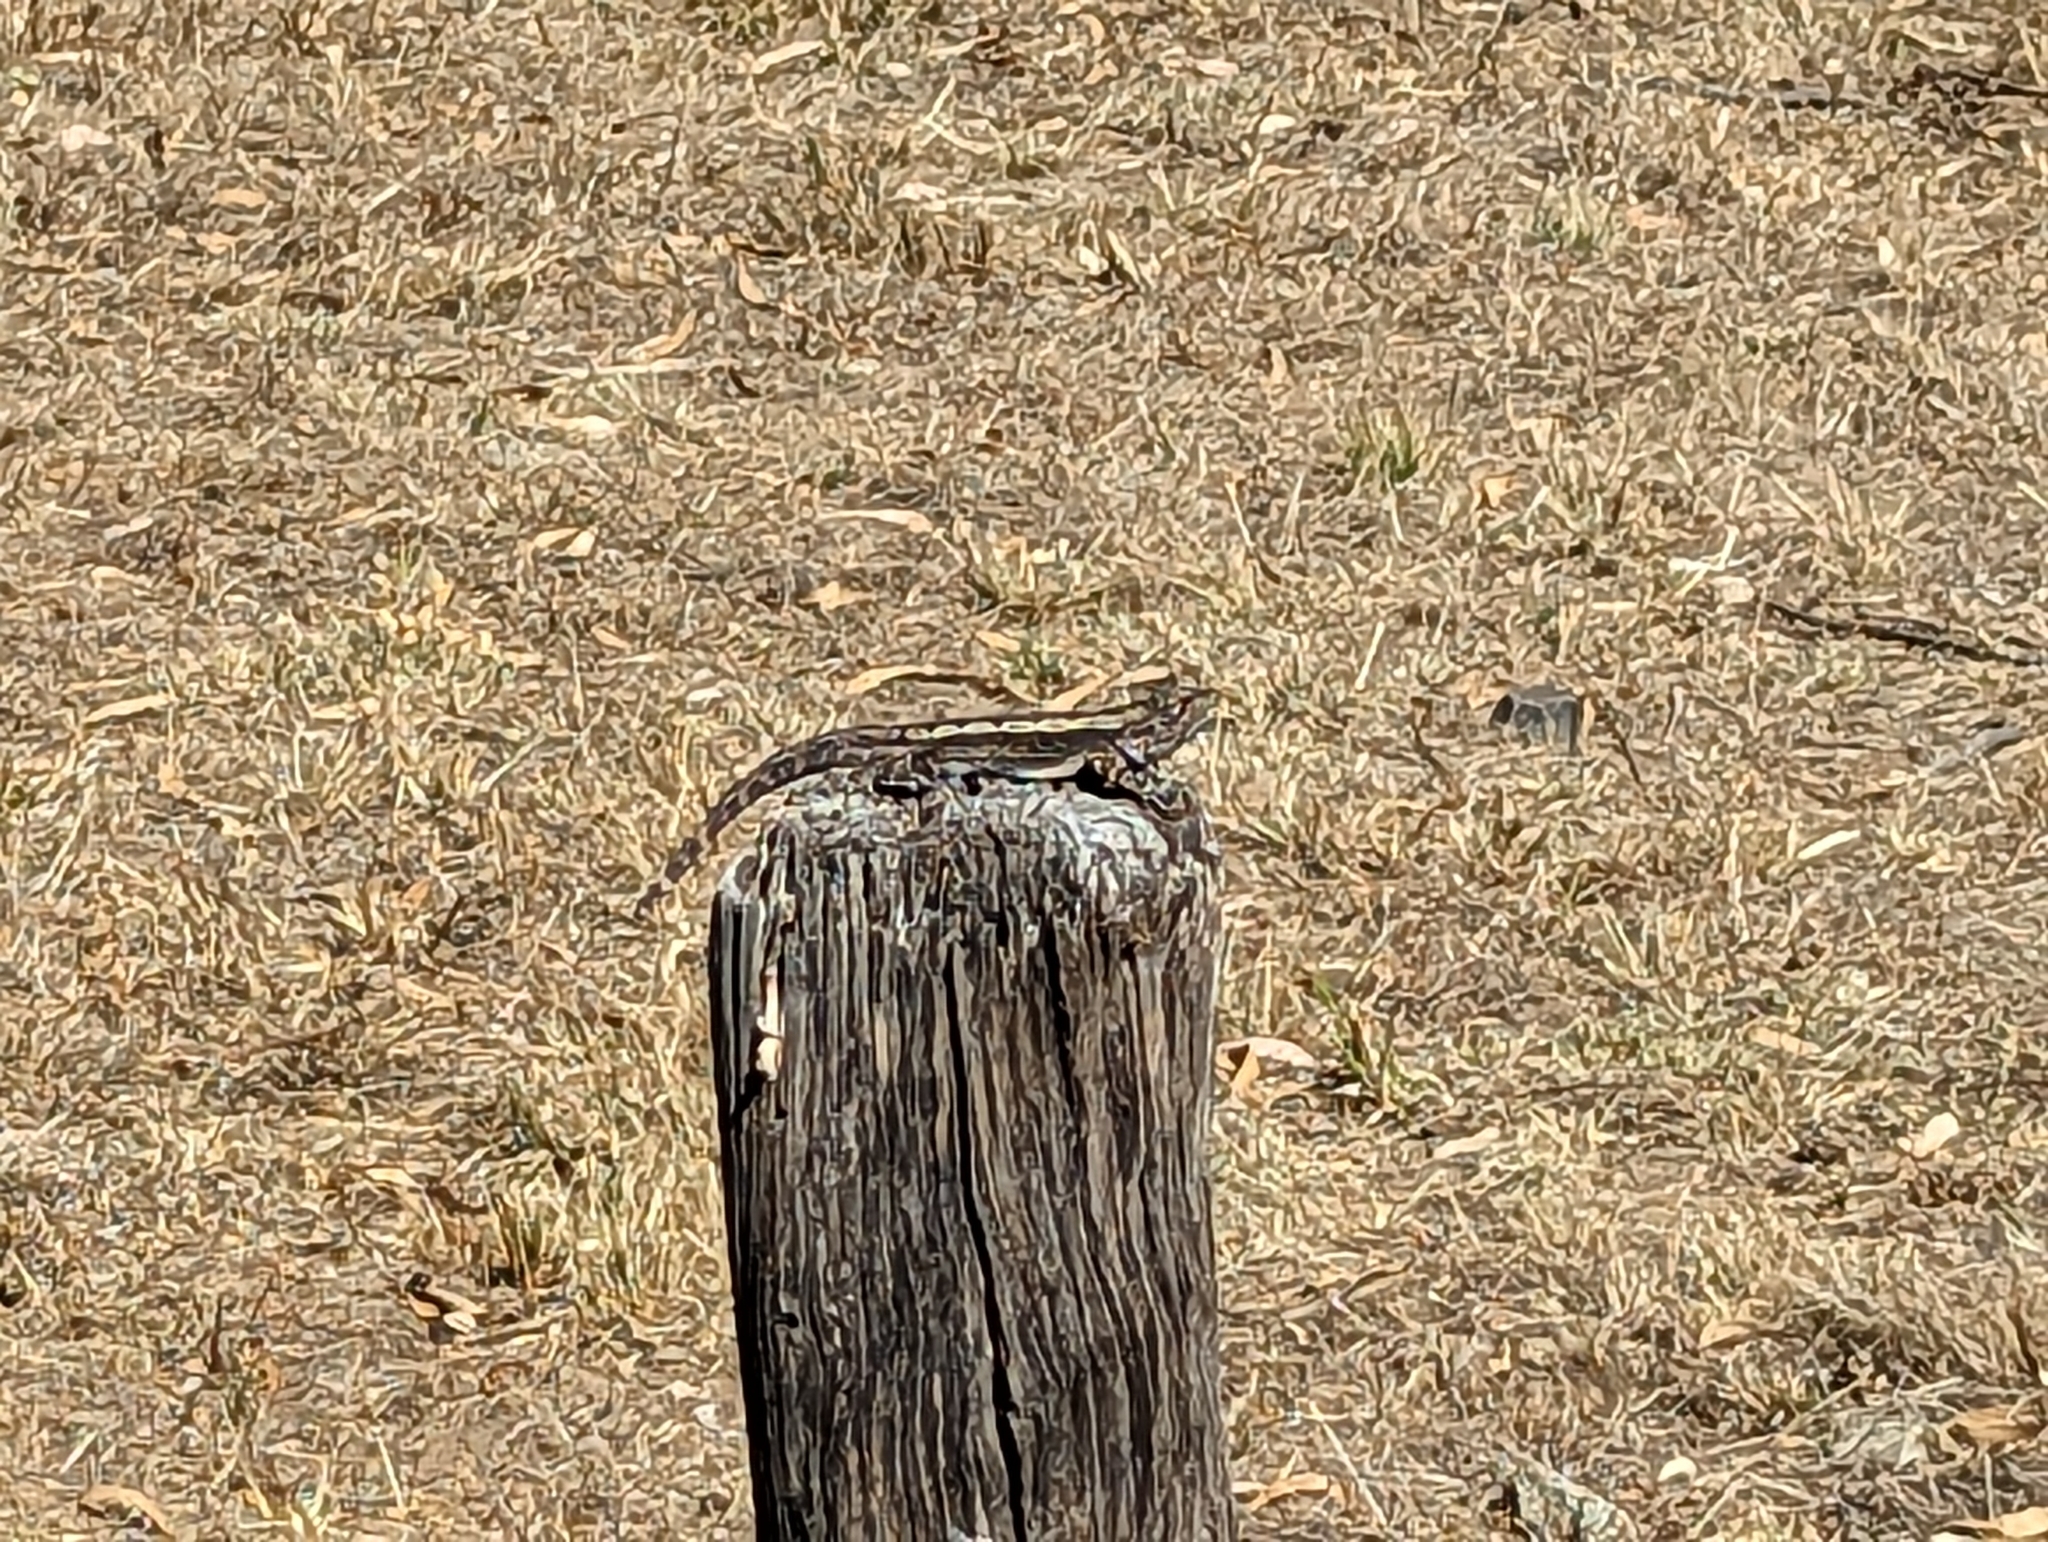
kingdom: Animalia
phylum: Chordata
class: Squamata
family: Agamidae
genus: Amphibolurus
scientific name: Amphibolurus muricatus
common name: Jacky lizard
